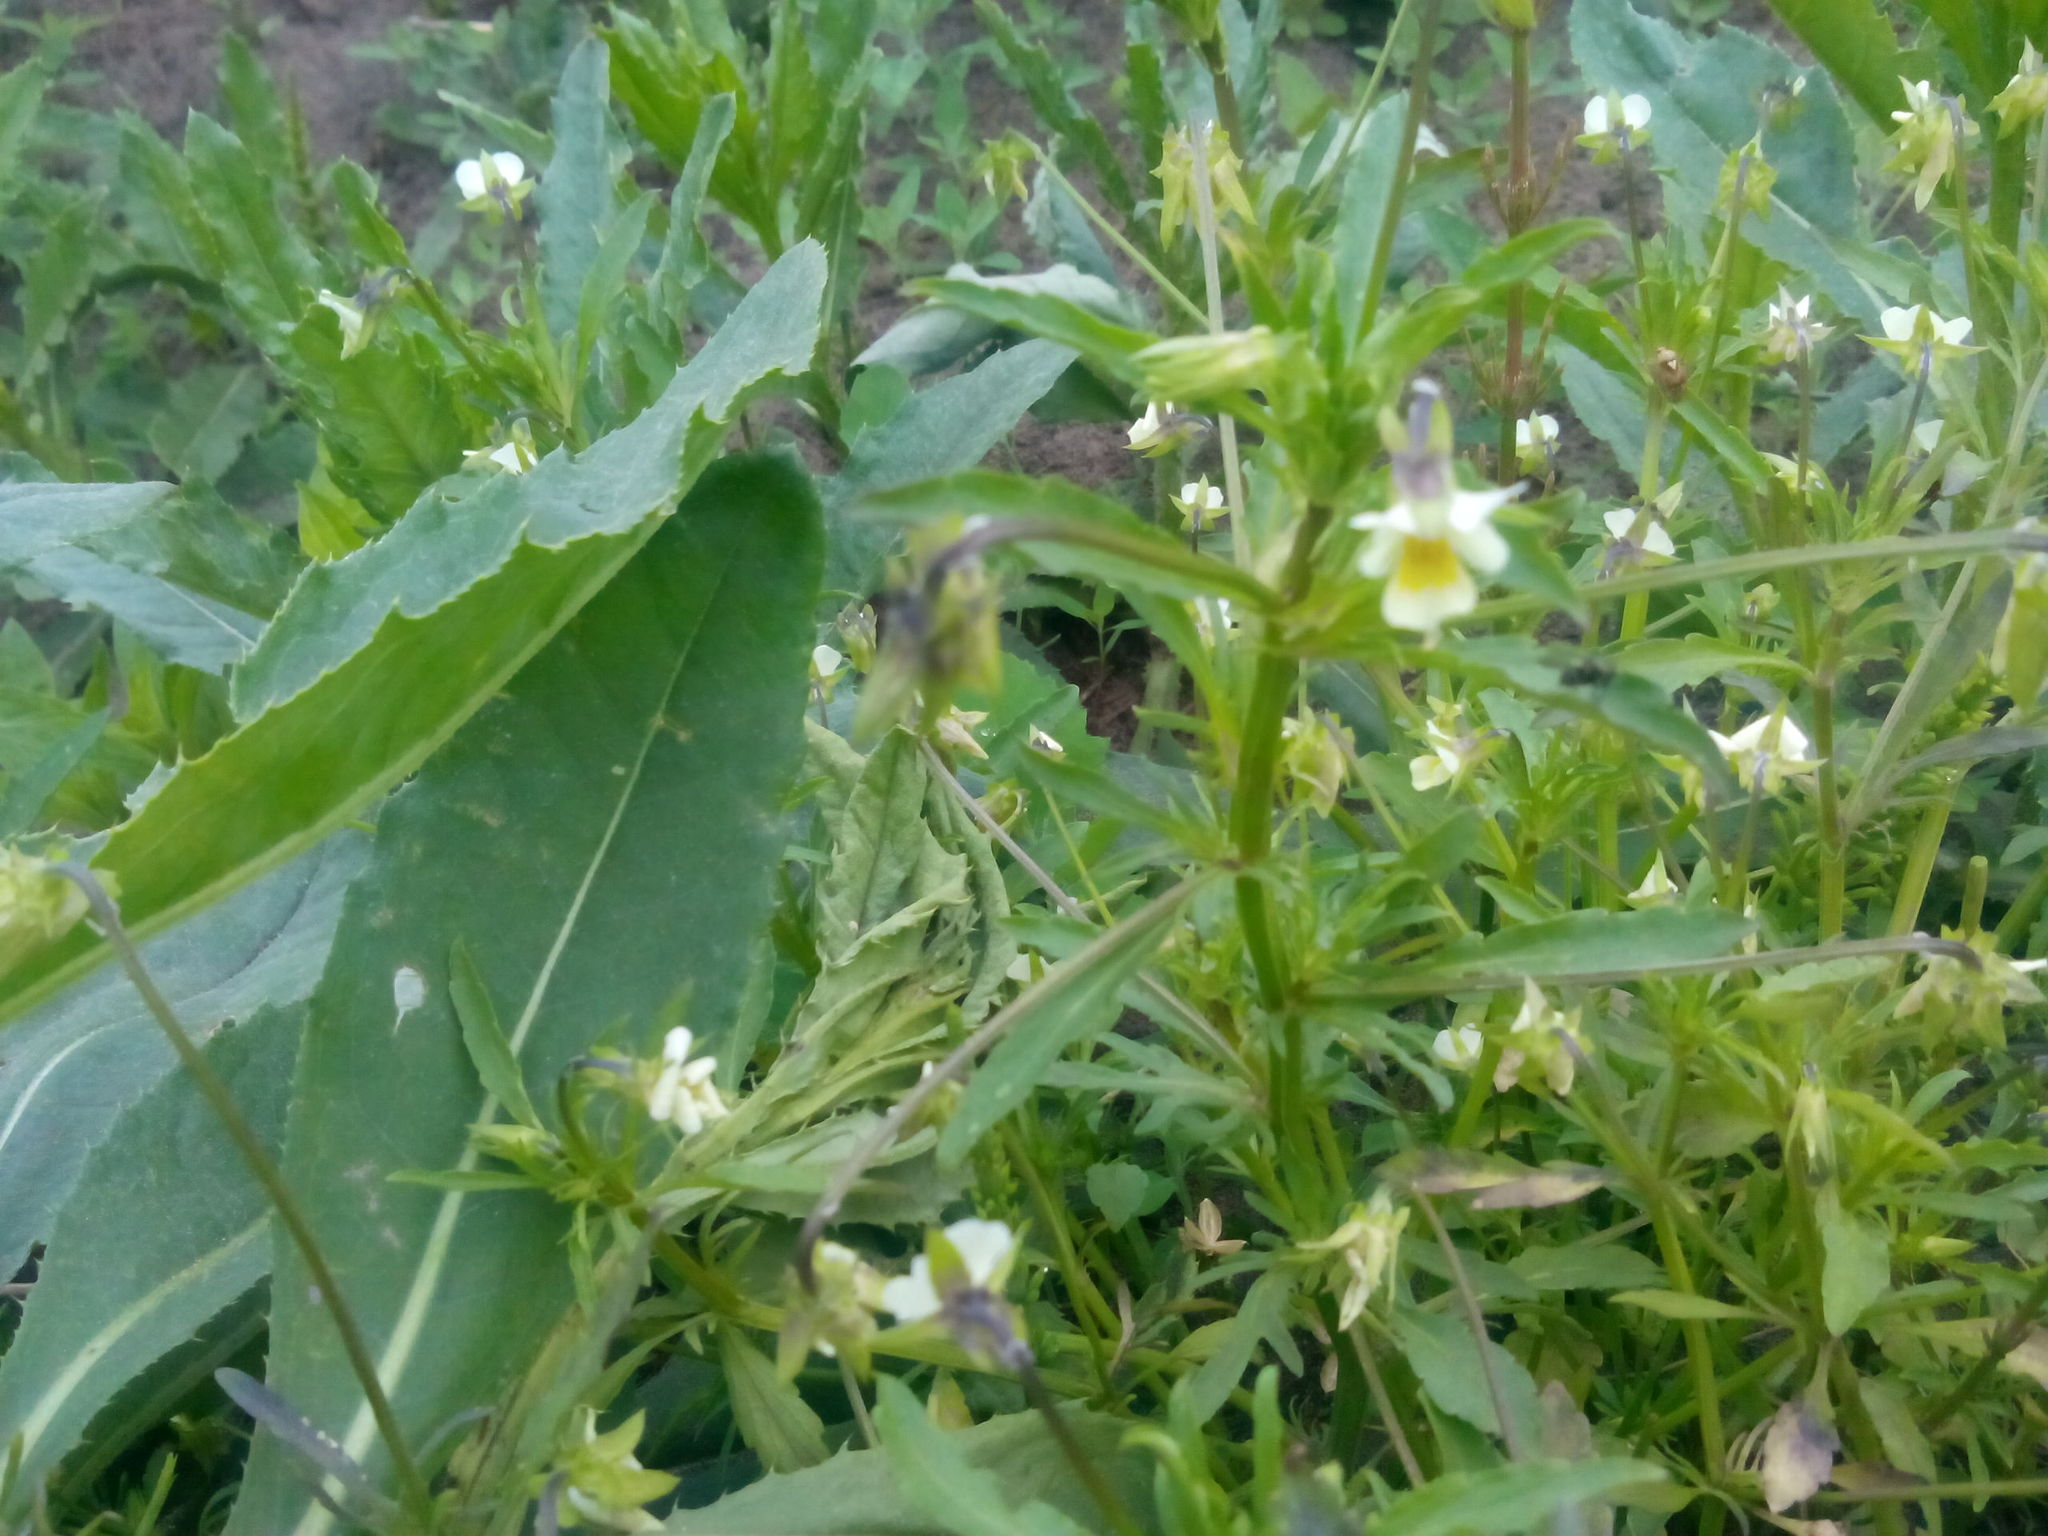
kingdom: Plantae
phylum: Tracheophyta
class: Magnoliopsida
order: Malpighiales
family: Violaceae
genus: Viola
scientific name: Viola arvensis
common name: Field pansy
